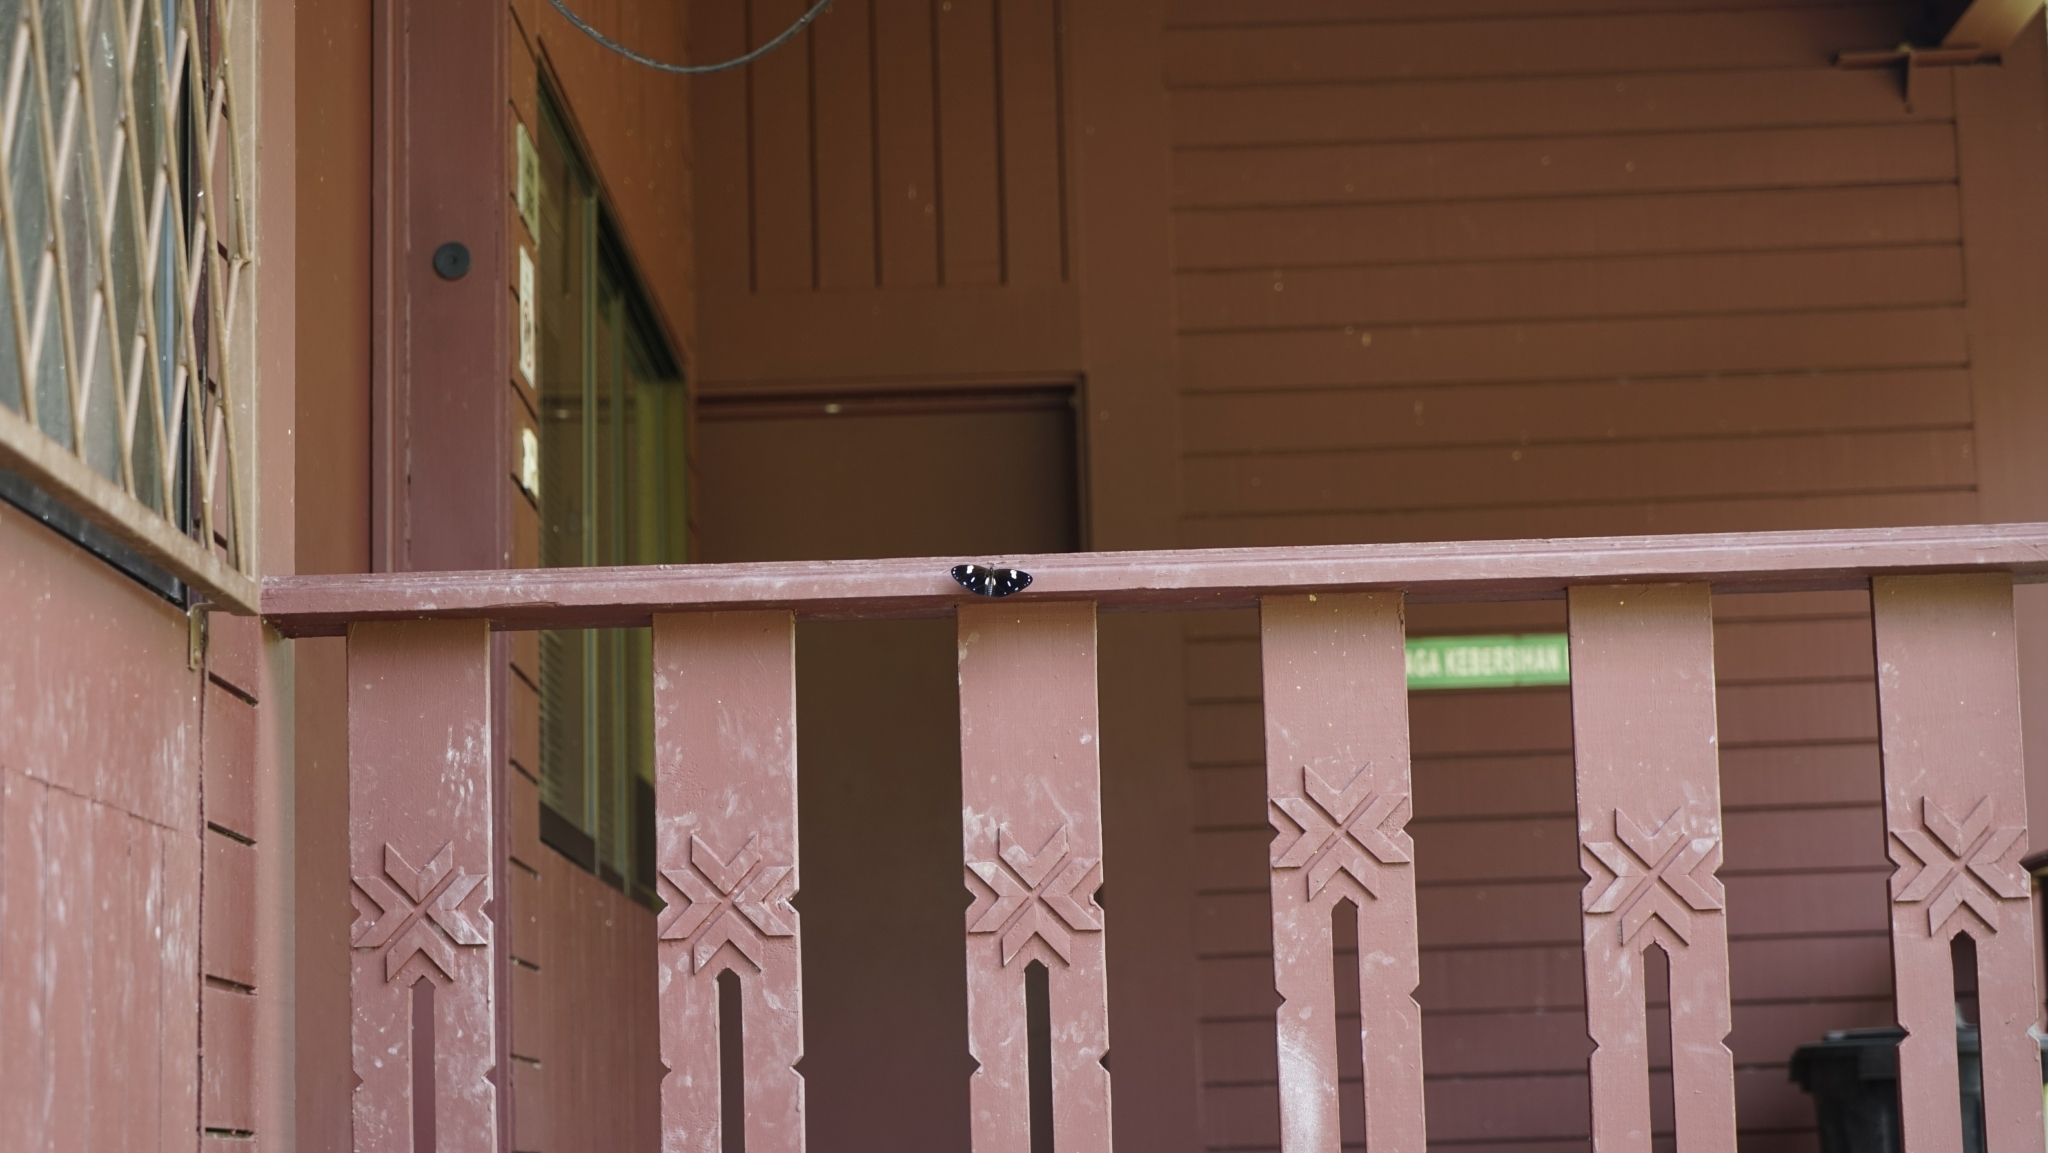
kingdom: Animalia
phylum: Arthropoda
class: Insecta
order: Lepidoptera
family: Nymphalidae
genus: Euploea
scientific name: Euploea radamanthus
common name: Magpie crow butterfly
